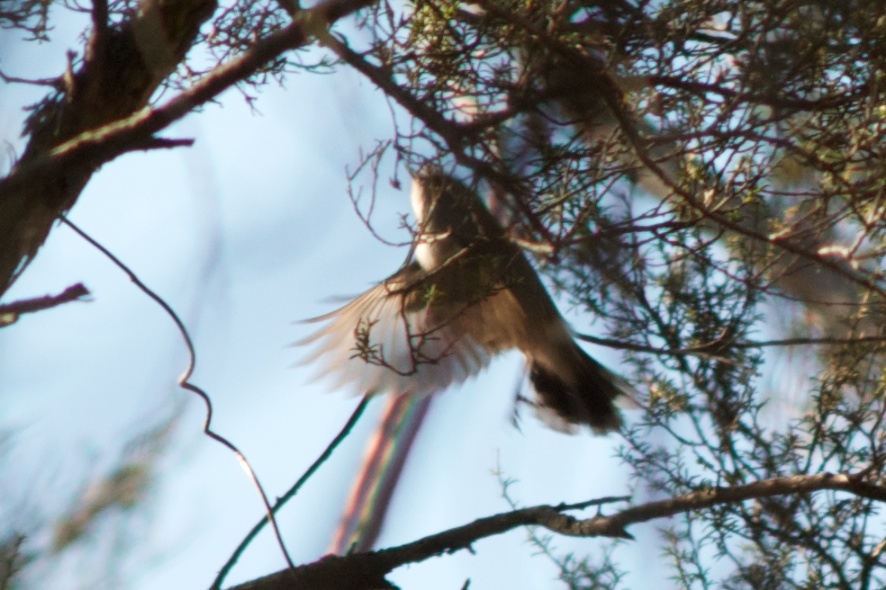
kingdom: Animalia
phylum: Chordata
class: Aves
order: Passeriformes
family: Acanthizidae
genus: Gerygone
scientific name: Gerygone igata
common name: Grey gerygone
